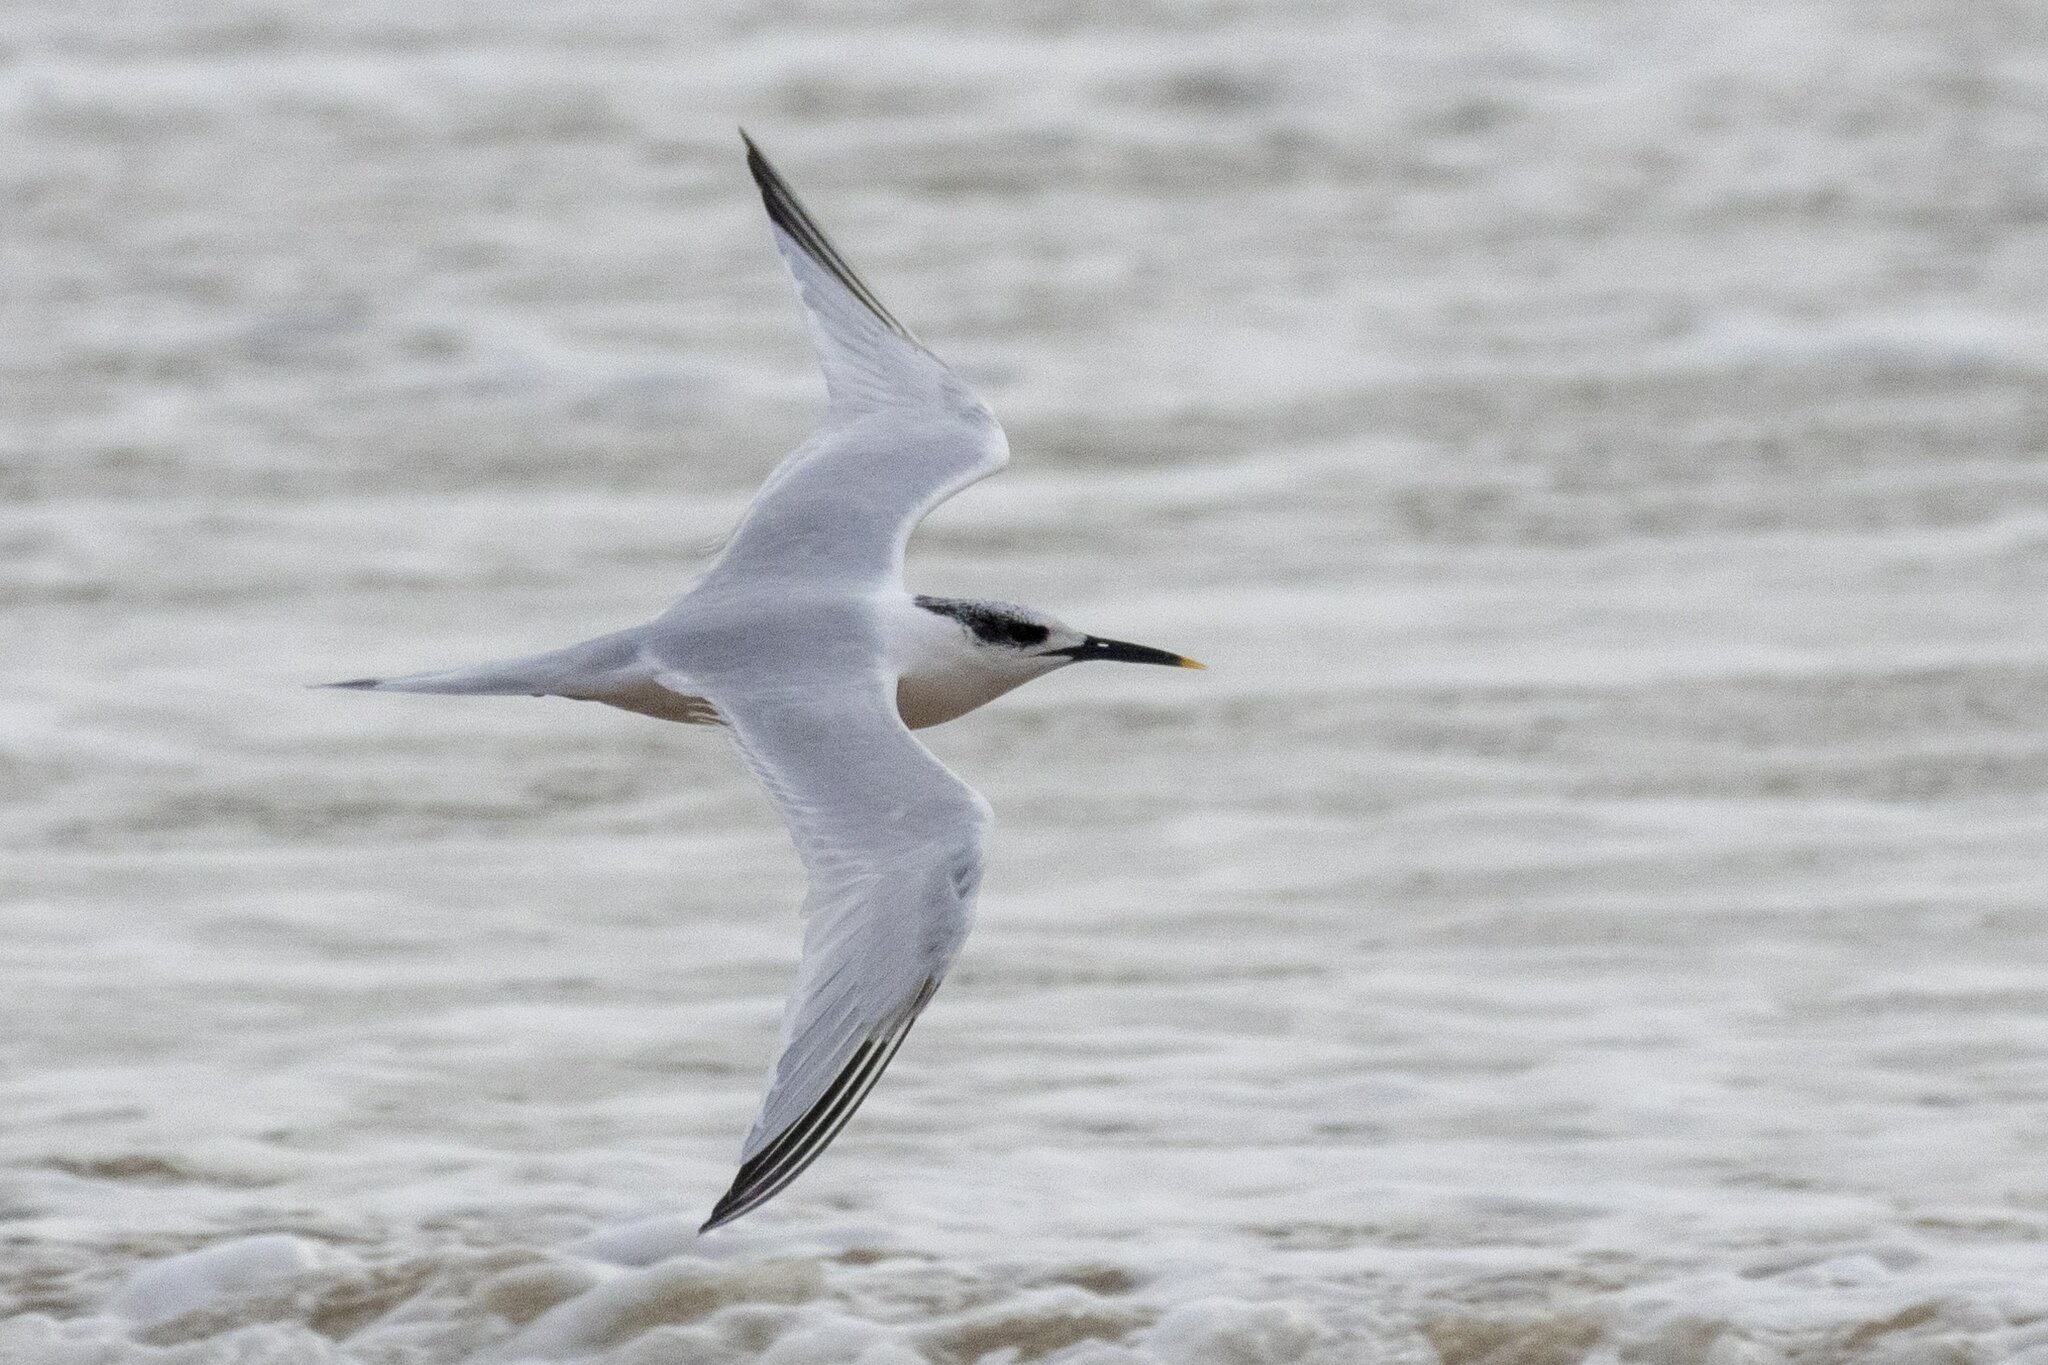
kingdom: Animalia
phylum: Chordata
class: Aves
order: Charadriiformes
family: Laridae
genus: Thalasseus
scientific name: Thalasseus sandvicensis
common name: Sandwich tern
